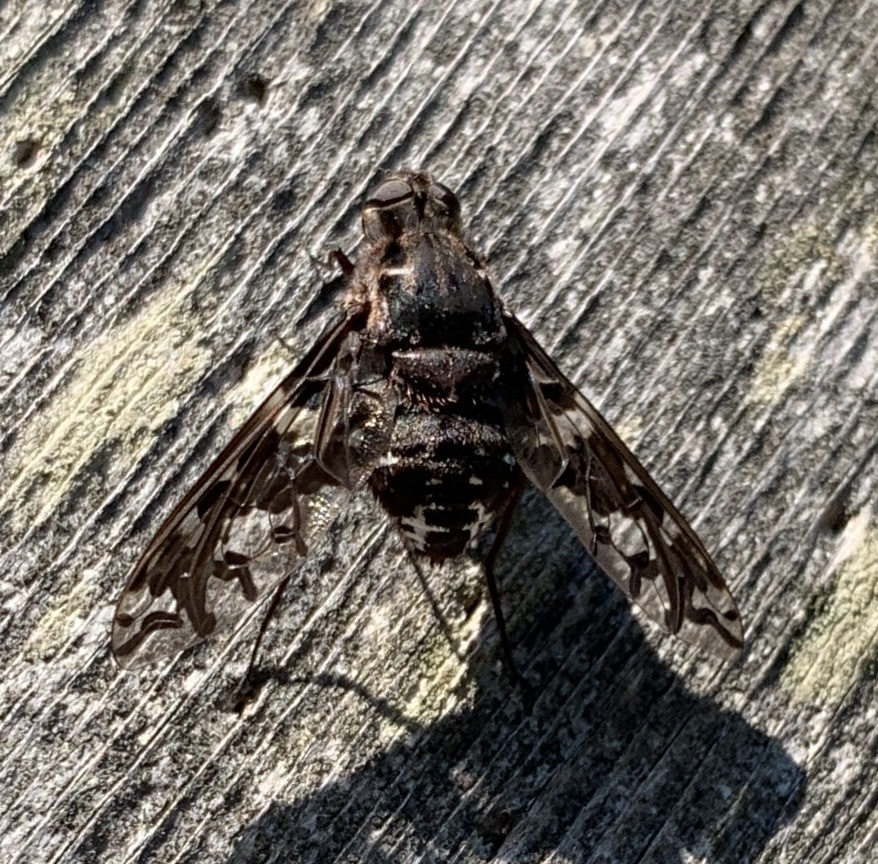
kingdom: Animalia
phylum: Arthropoda
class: Insecta
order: Diptera
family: Bombyliidae
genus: Xenox
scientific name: Xenox tigrinus
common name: Tiger bee fly
